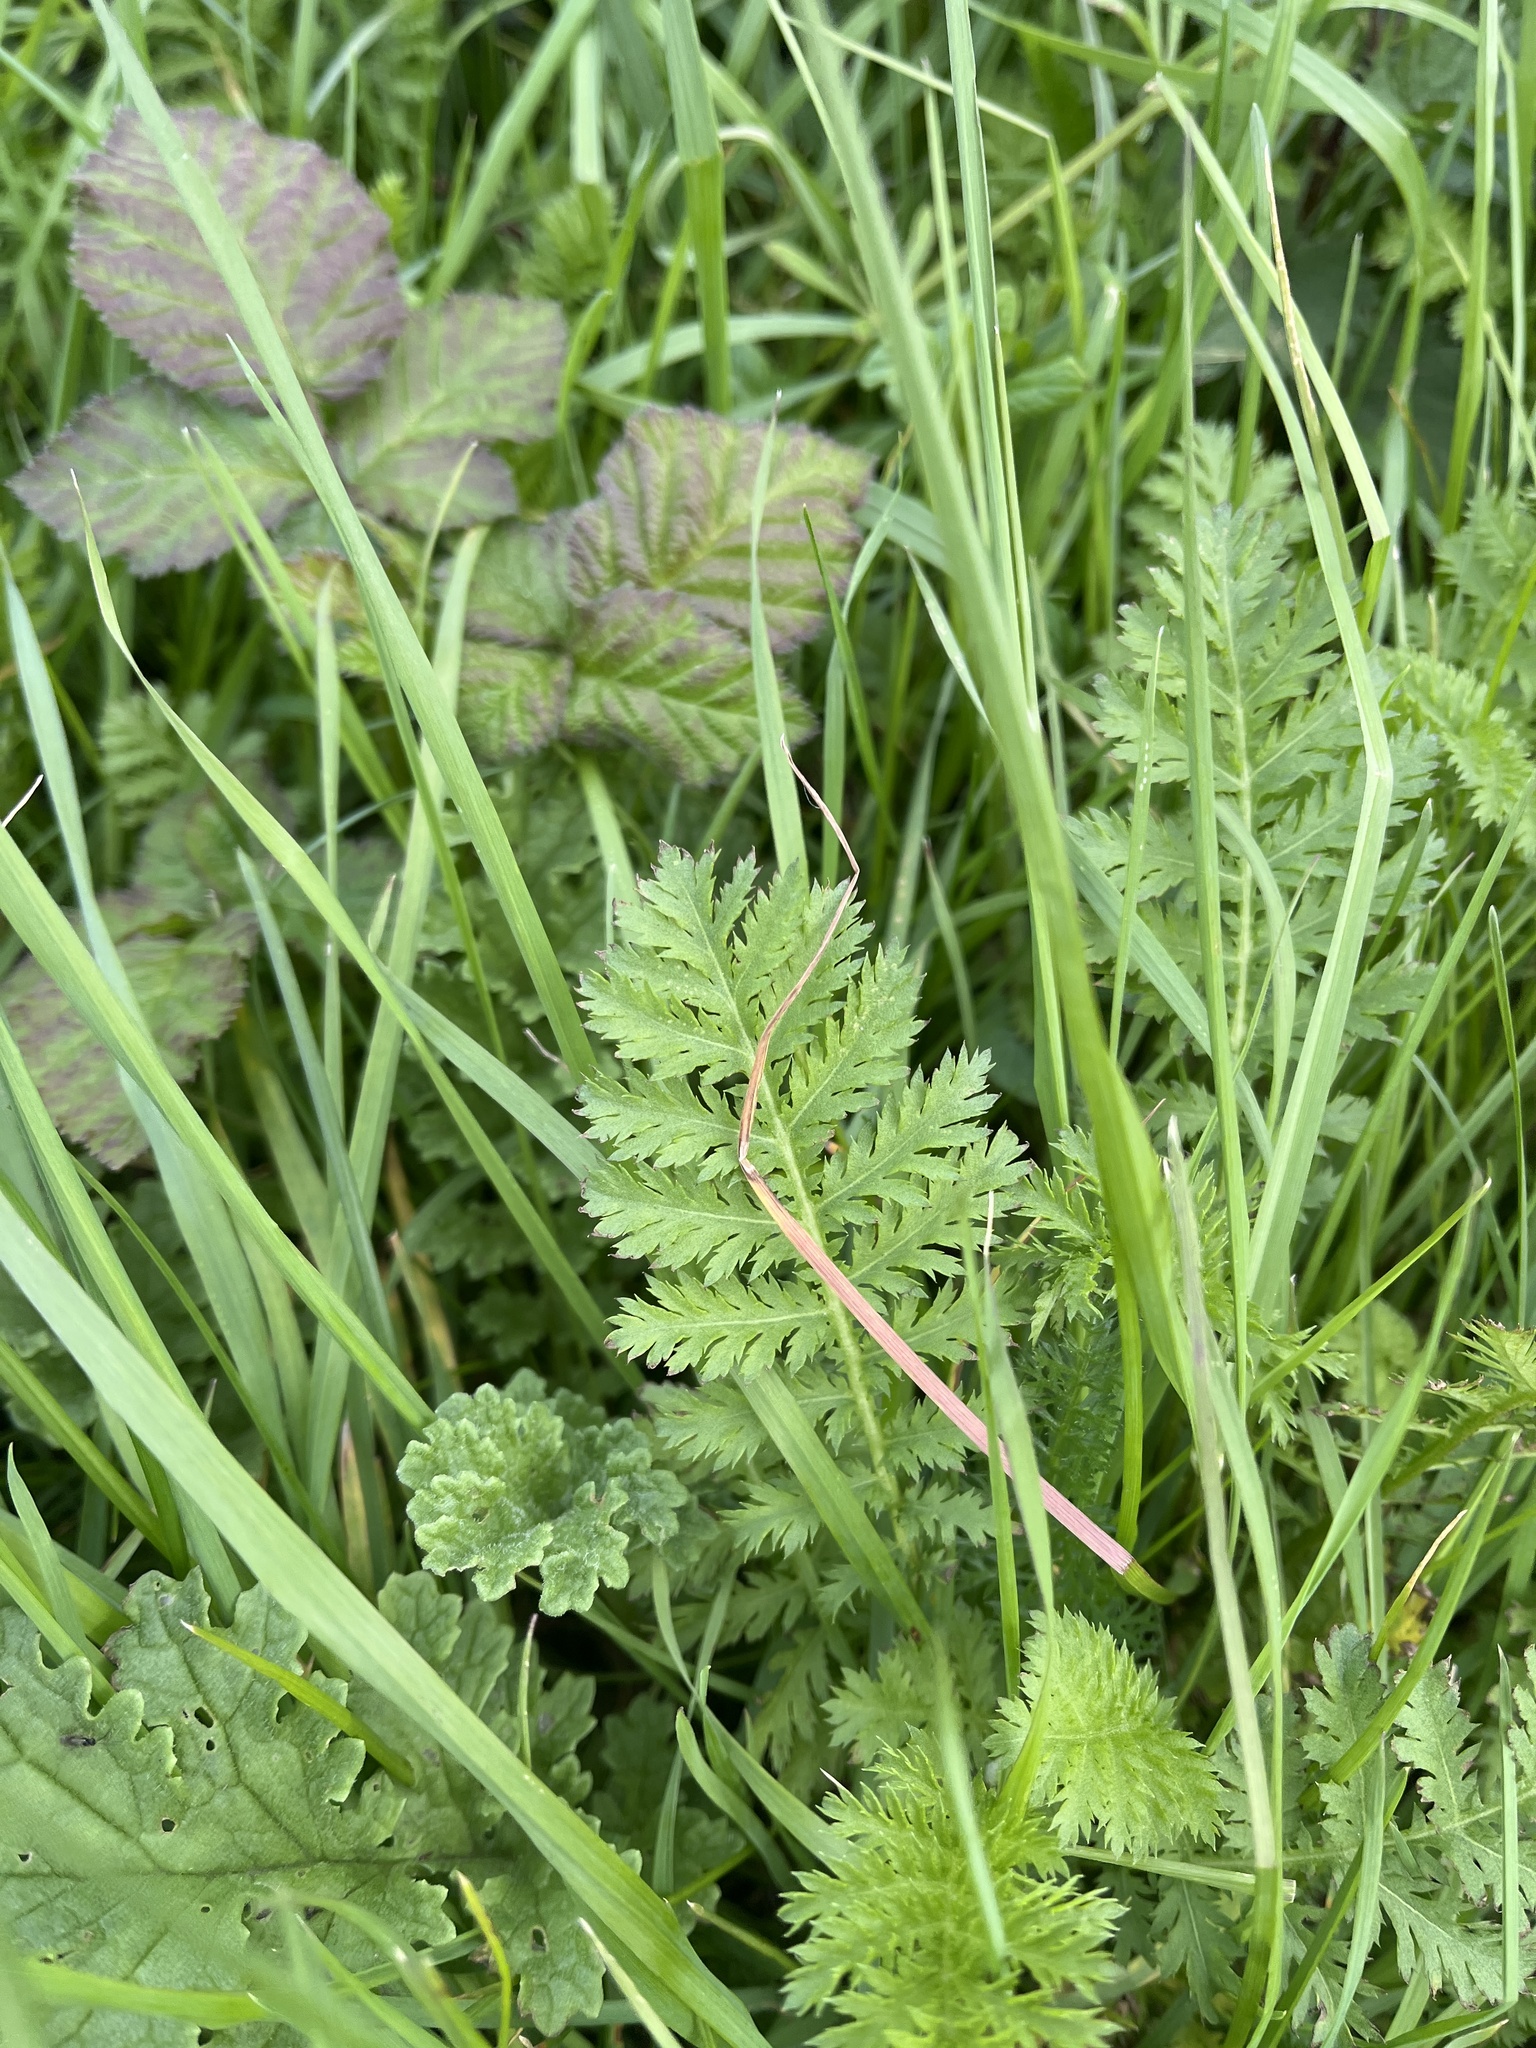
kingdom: Plantae
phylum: Tracheophyta
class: Magnoliopsida
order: Asterales
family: Asteraceae
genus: Tanacetum
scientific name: Tanacetum vulgare
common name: Common tansy
